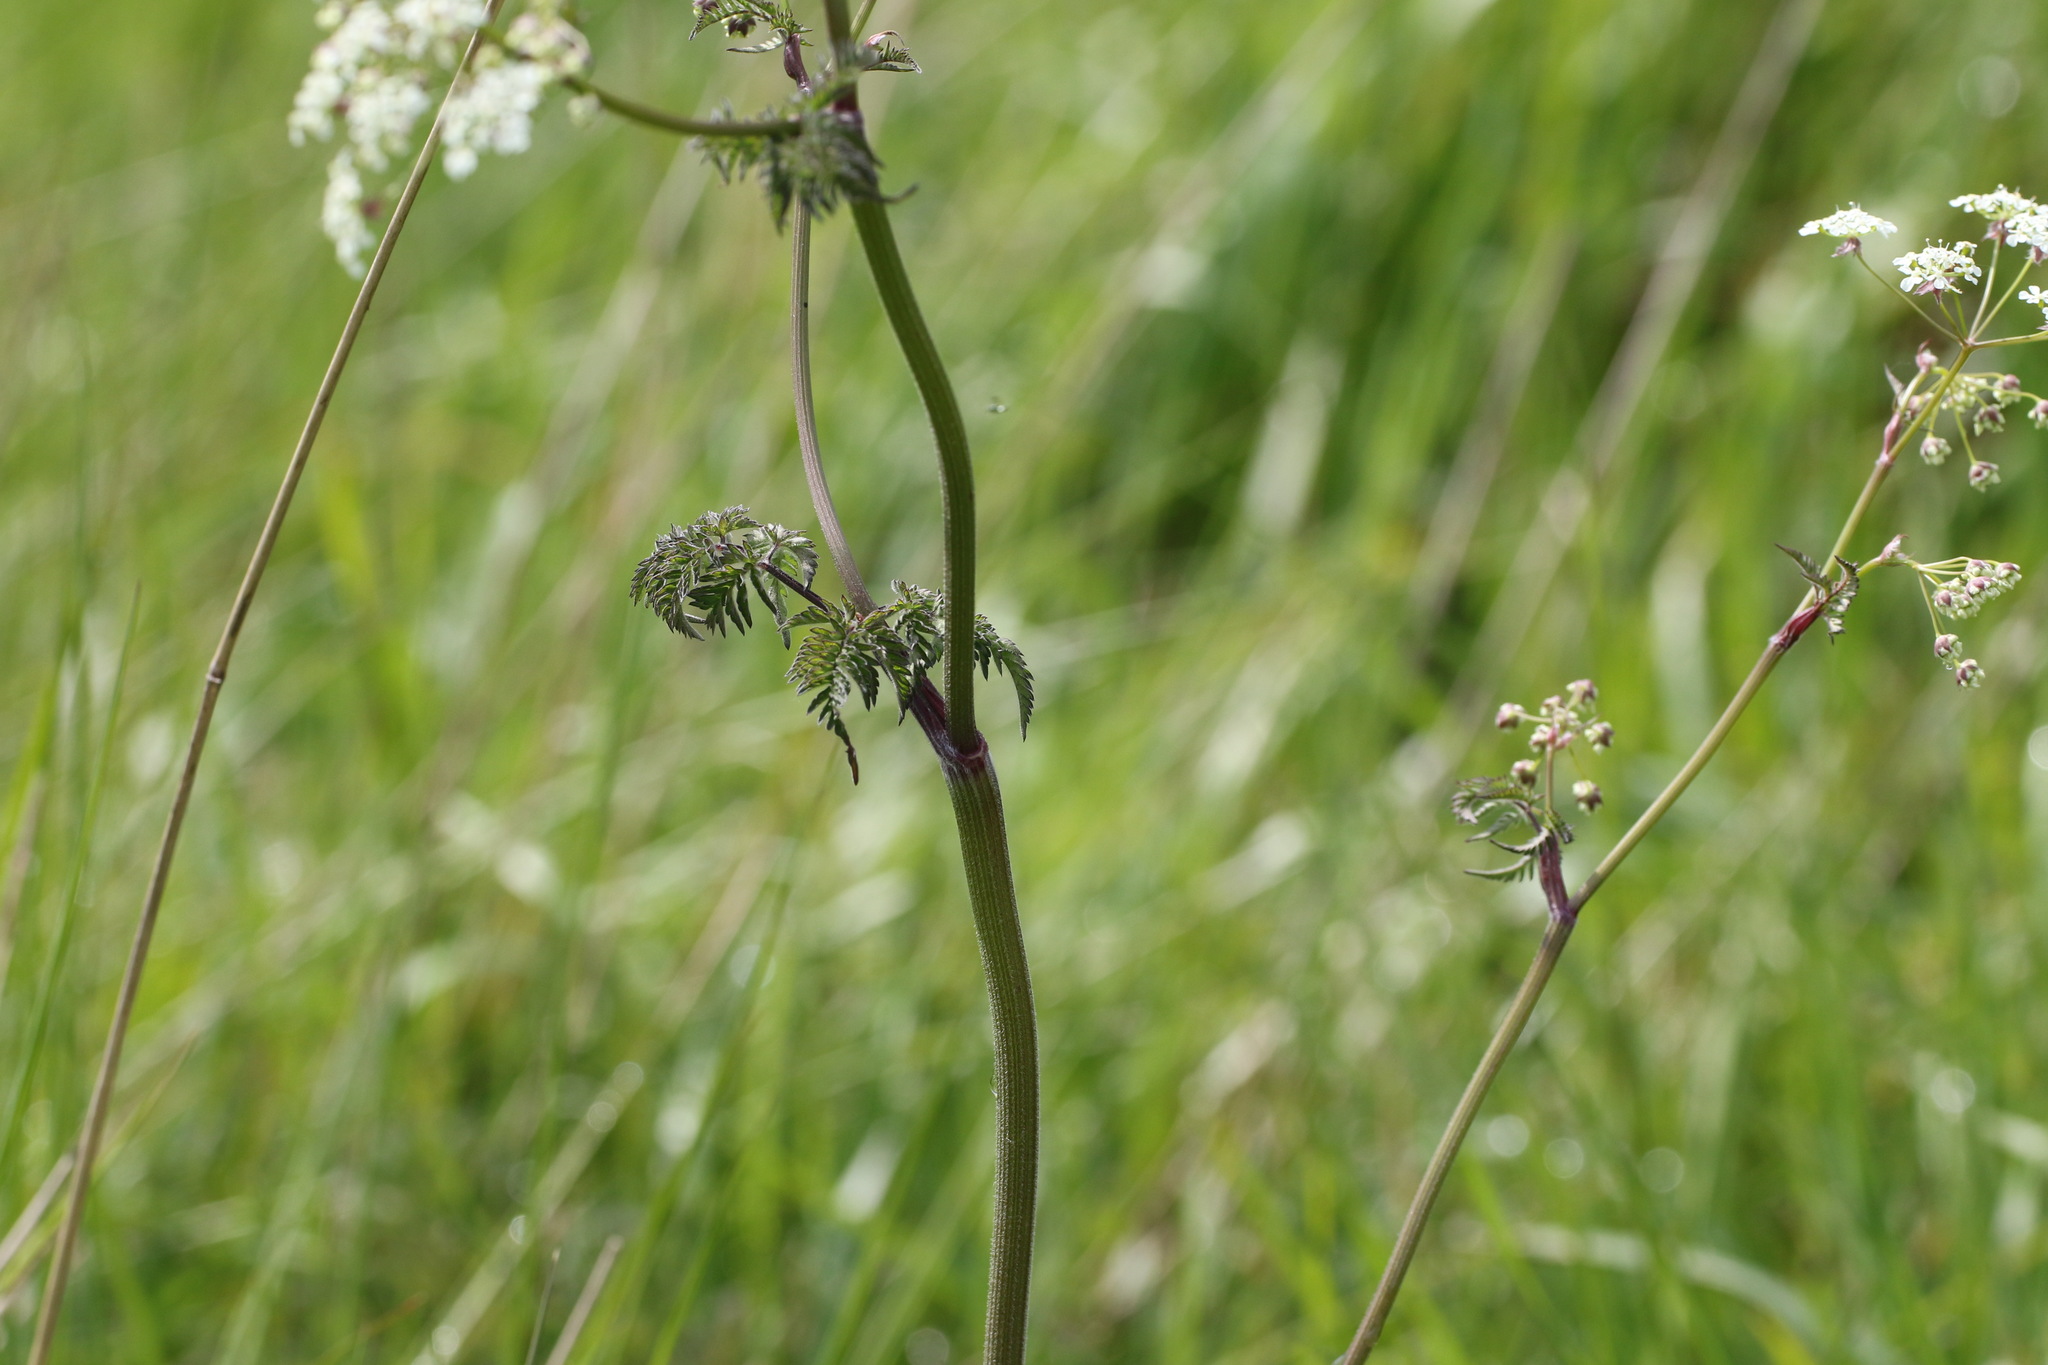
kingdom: Plantae
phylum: Tracheophyta
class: Magnoliopsida
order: Apiales
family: Apiaceae
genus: Anthriscus
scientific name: Anthriscus sylvestris
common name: Cow parsley
